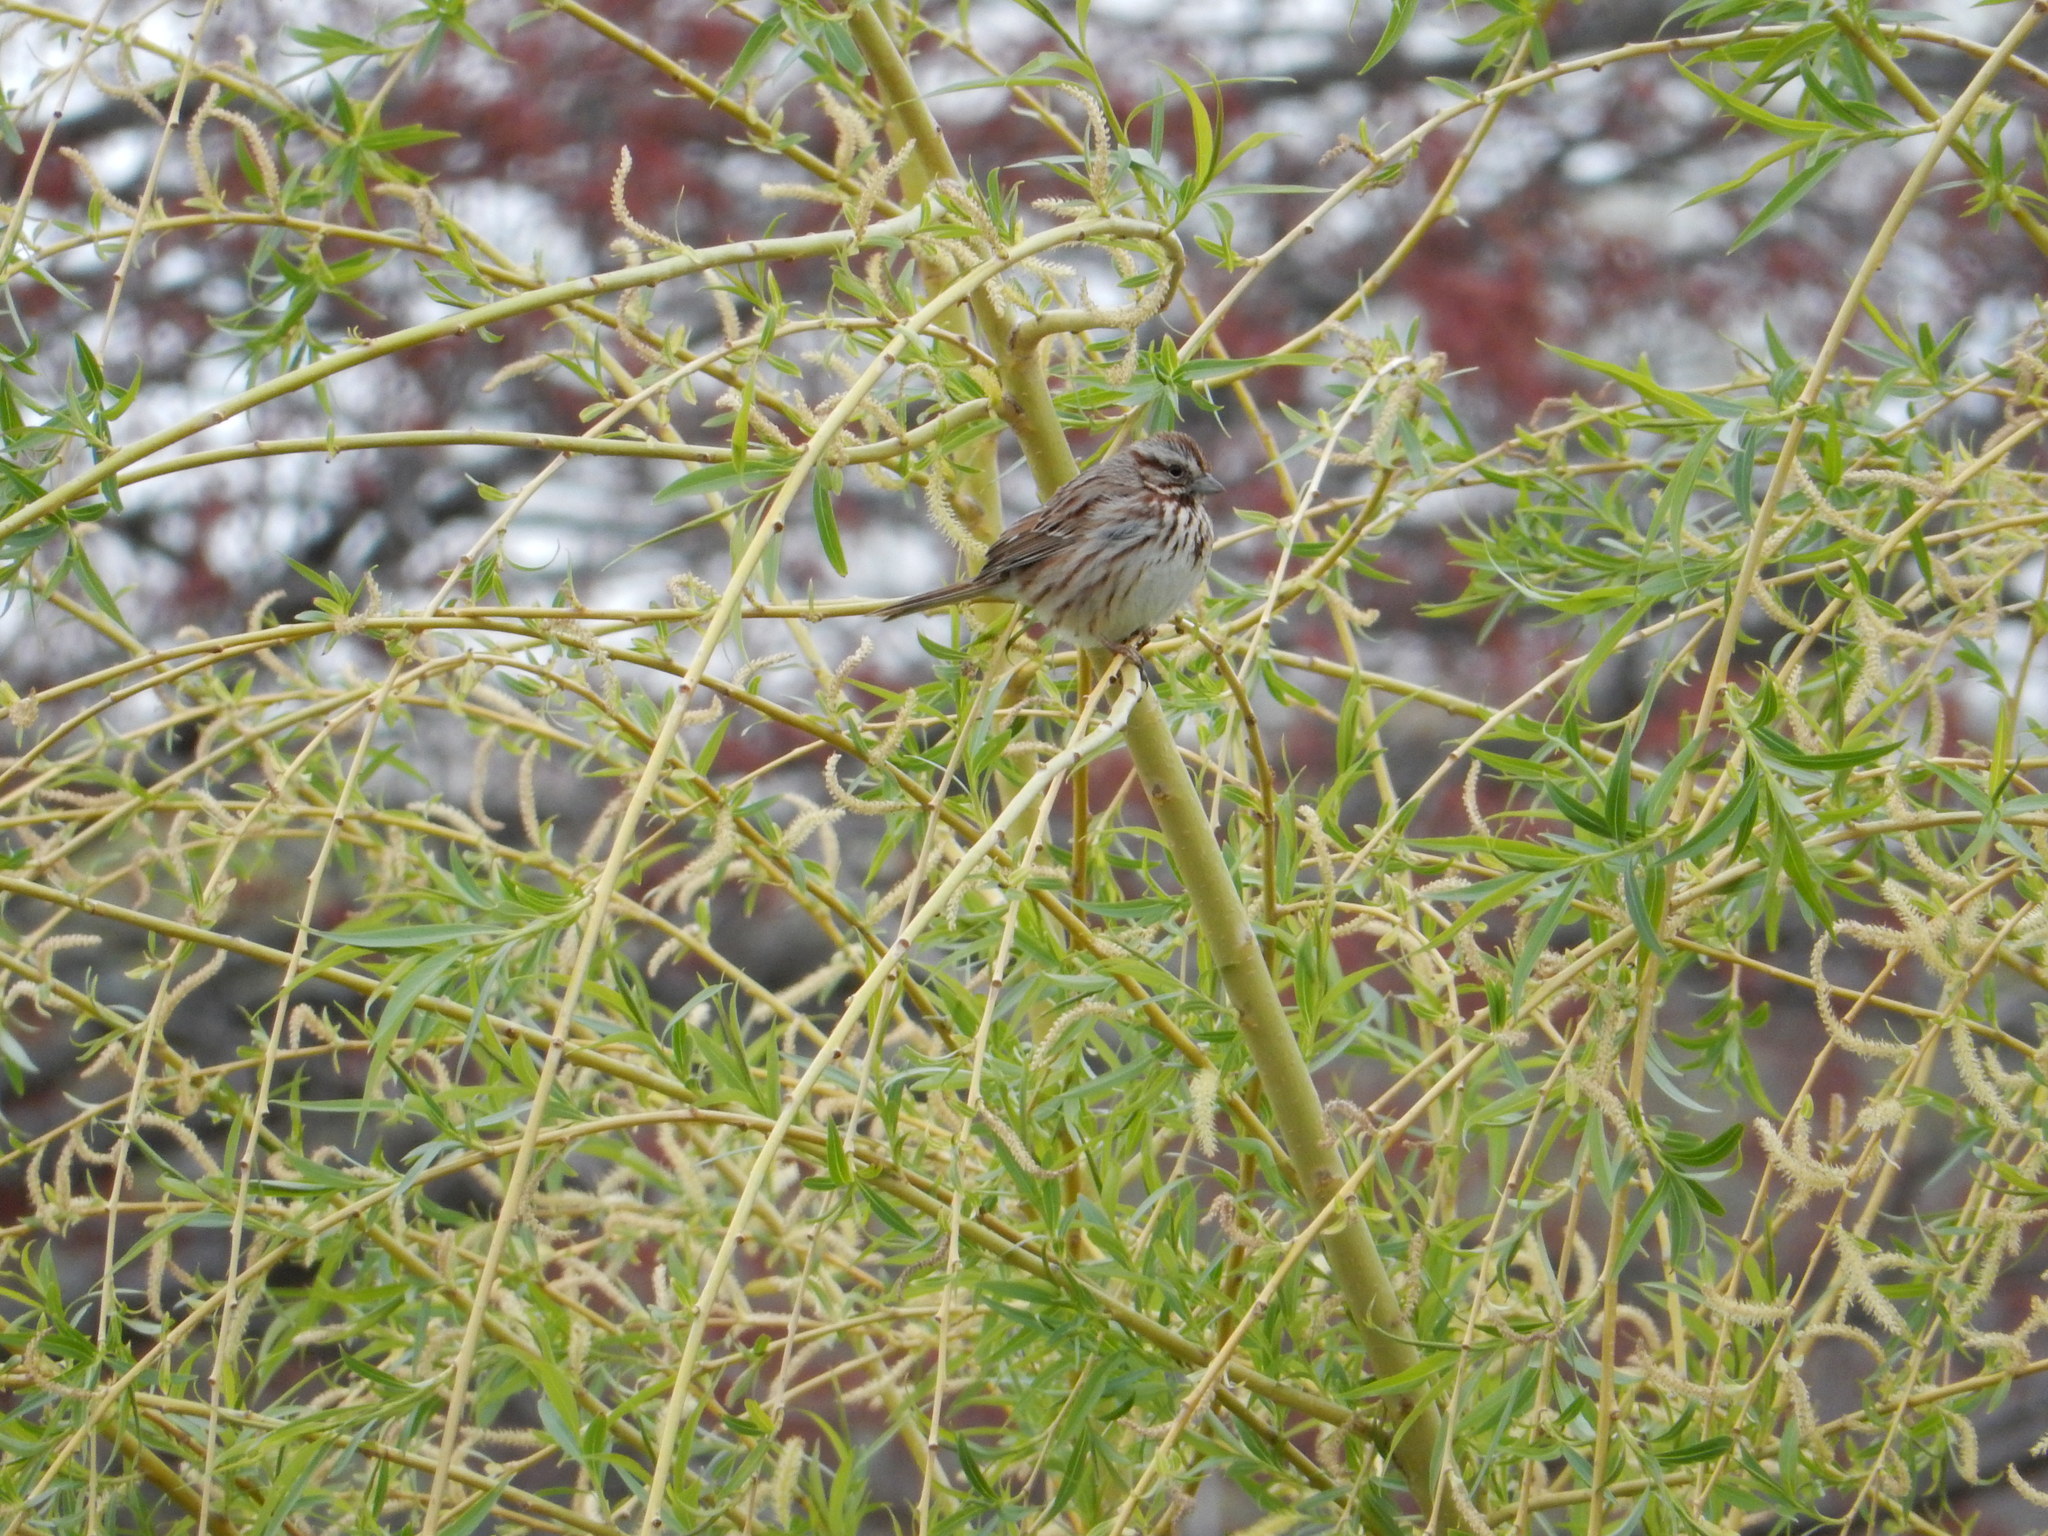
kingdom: Animalia
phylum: Chordata
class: Aves
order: Passeriformes
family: Passerellidae
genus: Melospiza
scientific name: Melospiza melodia
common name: Song sparrow
